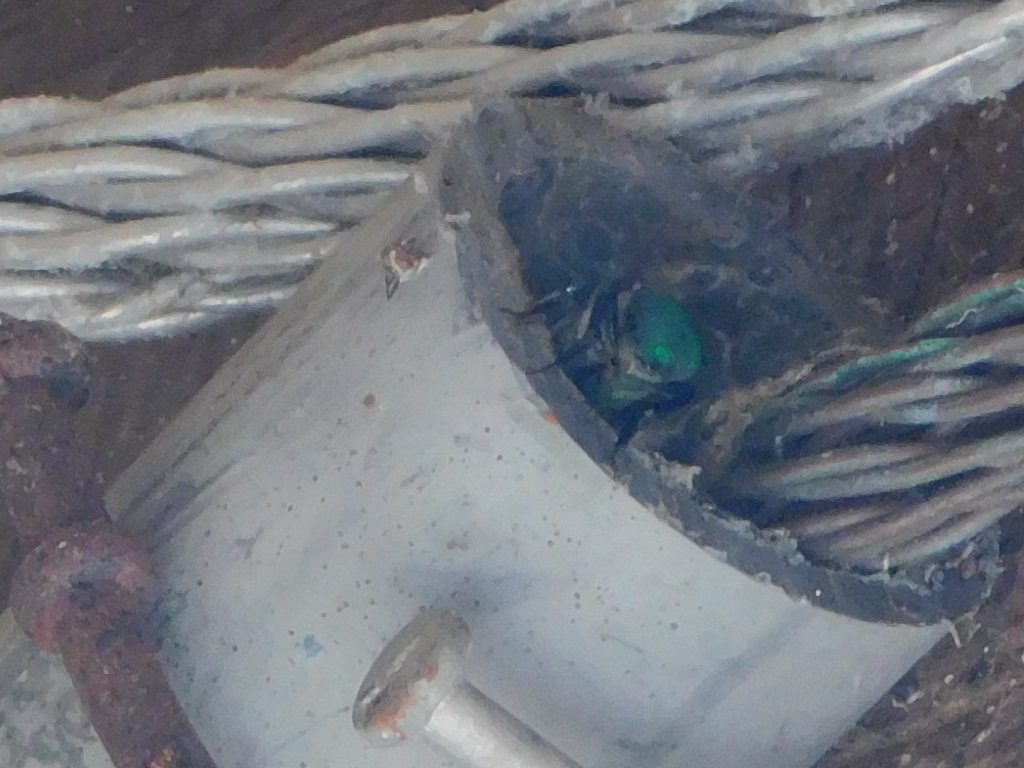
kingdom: Animalia
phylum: Arthropoda
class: Insecta
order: Hymenoptera
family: Apidae
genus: Euglossa
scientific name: Euglossa dilemma
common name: Green orchid bee
